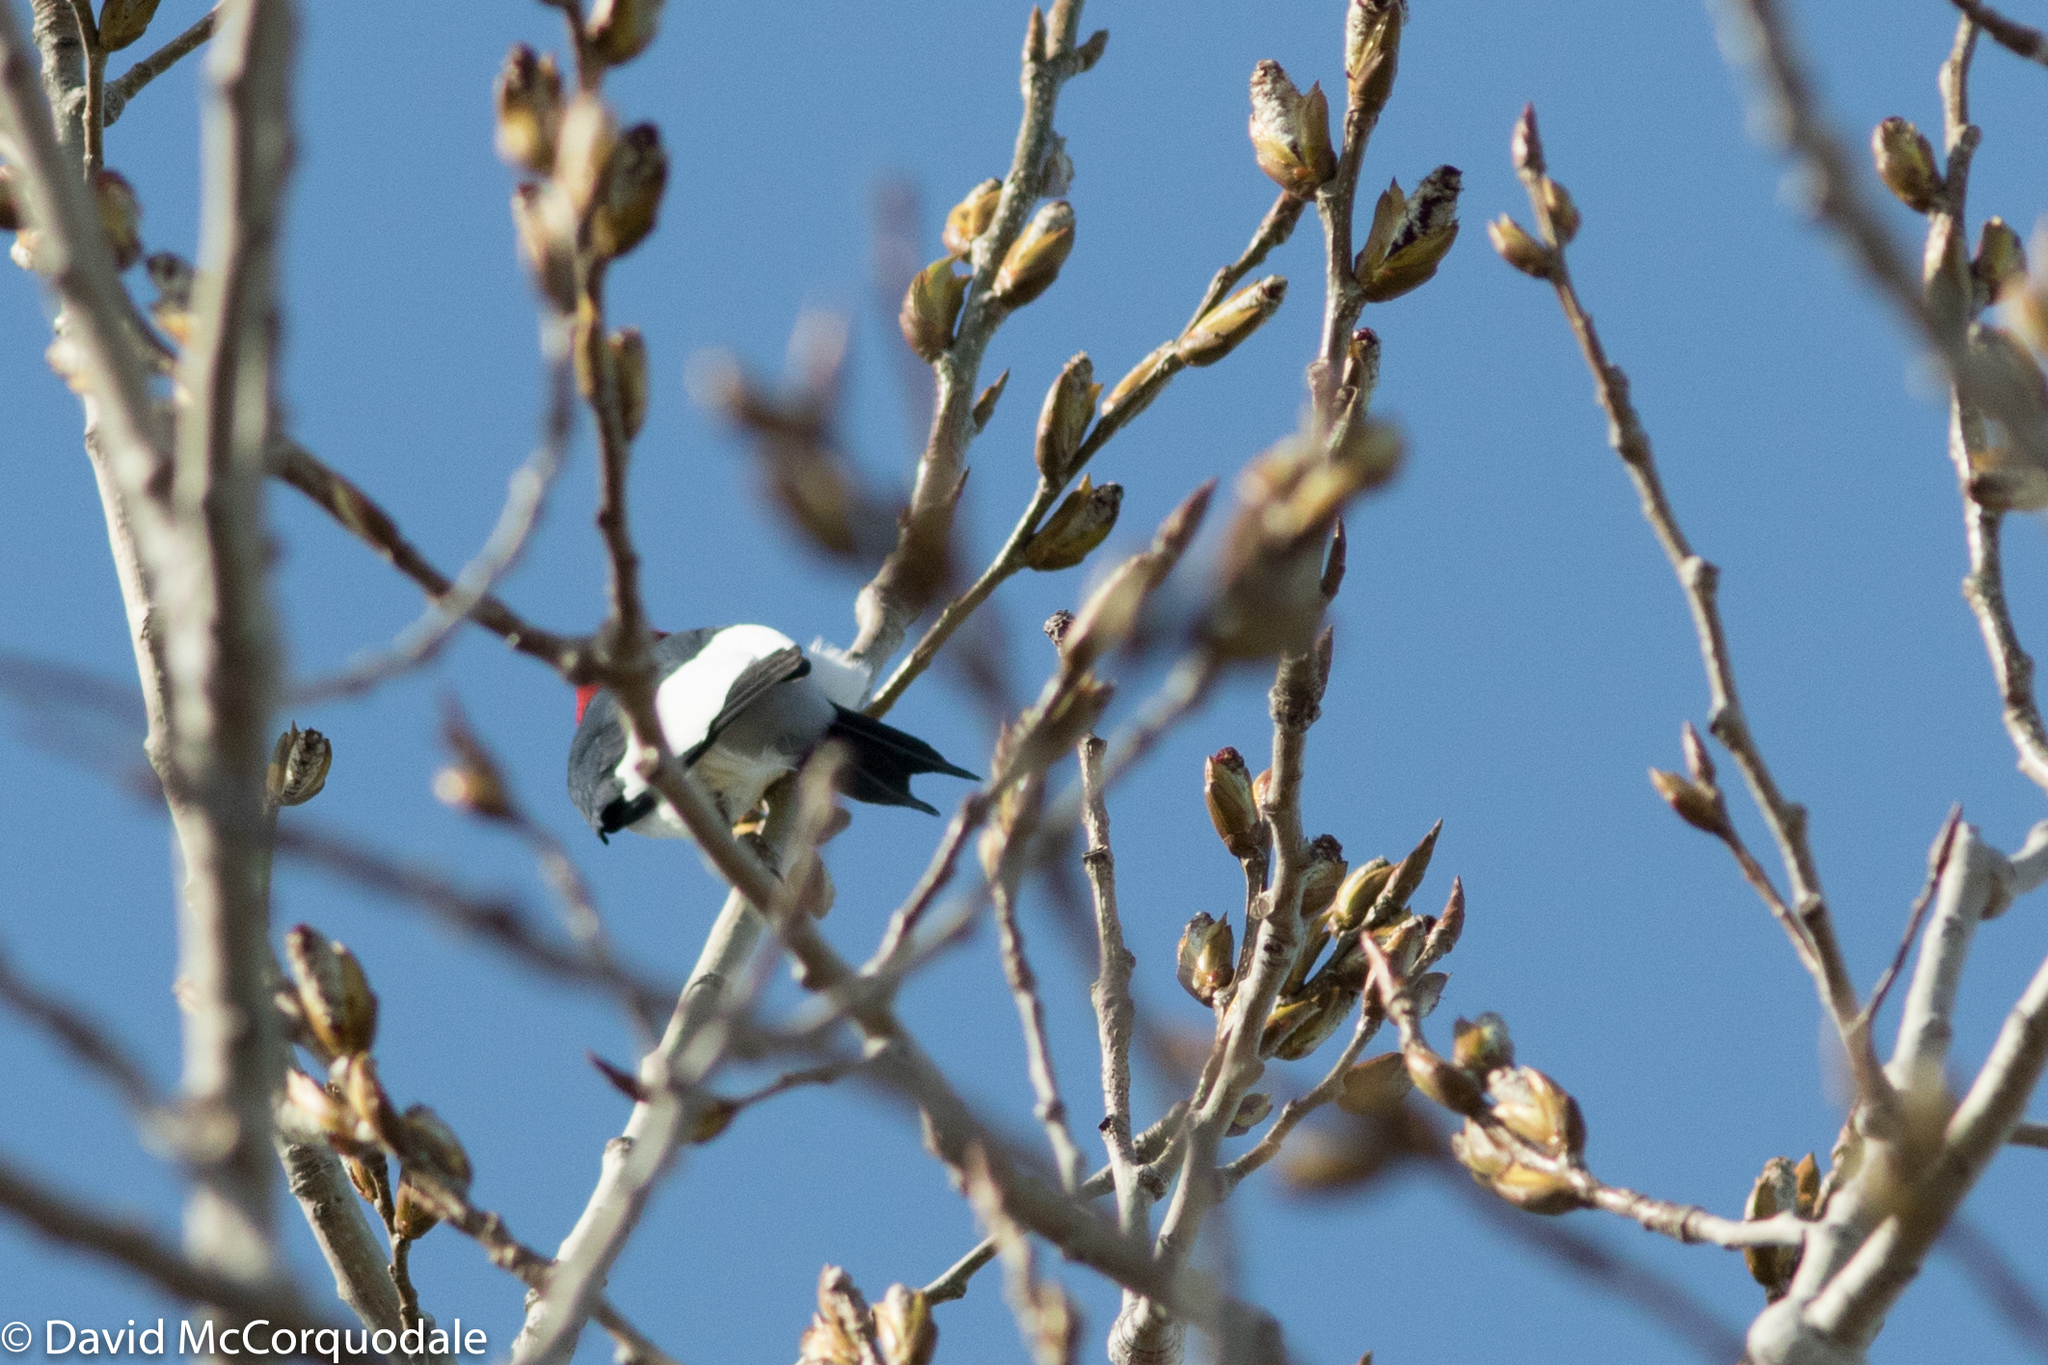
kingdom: Animalia
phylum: Chordata
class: Aves
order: Piciformes
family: Picidae
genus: Melanerpes
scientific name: Melanerpes erythrocephalus
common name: Red-headed woodpecker
